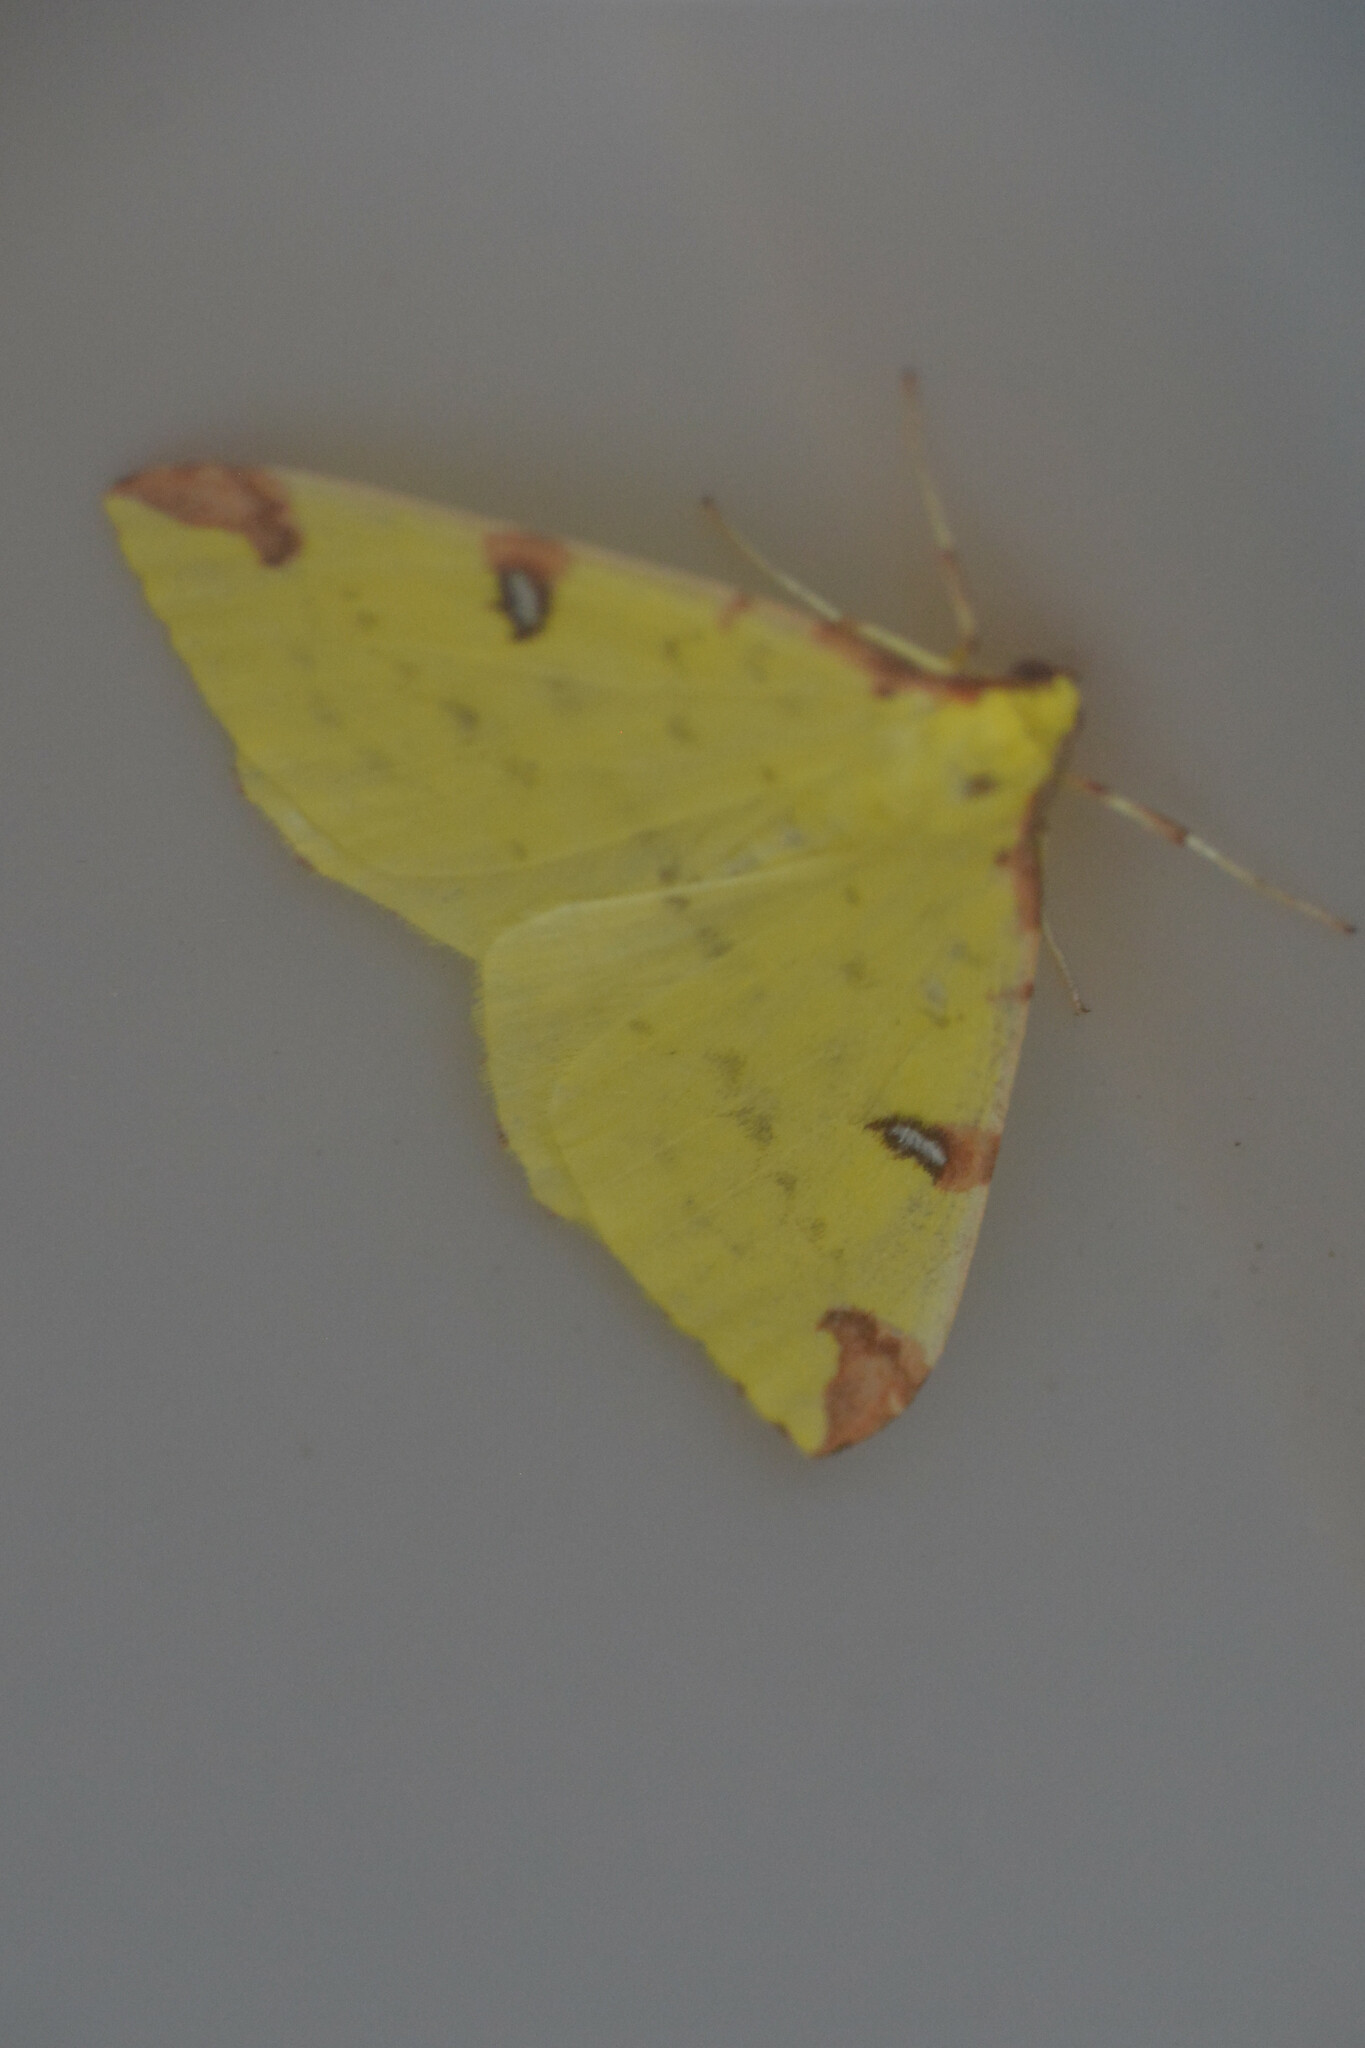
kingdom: Animalia
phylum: Arthropoda
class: Insecta
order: Lepidoptera
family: Geometridae
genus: Opisthograptis
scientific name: Opisthograptis luteolata
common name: Brimstone moth
